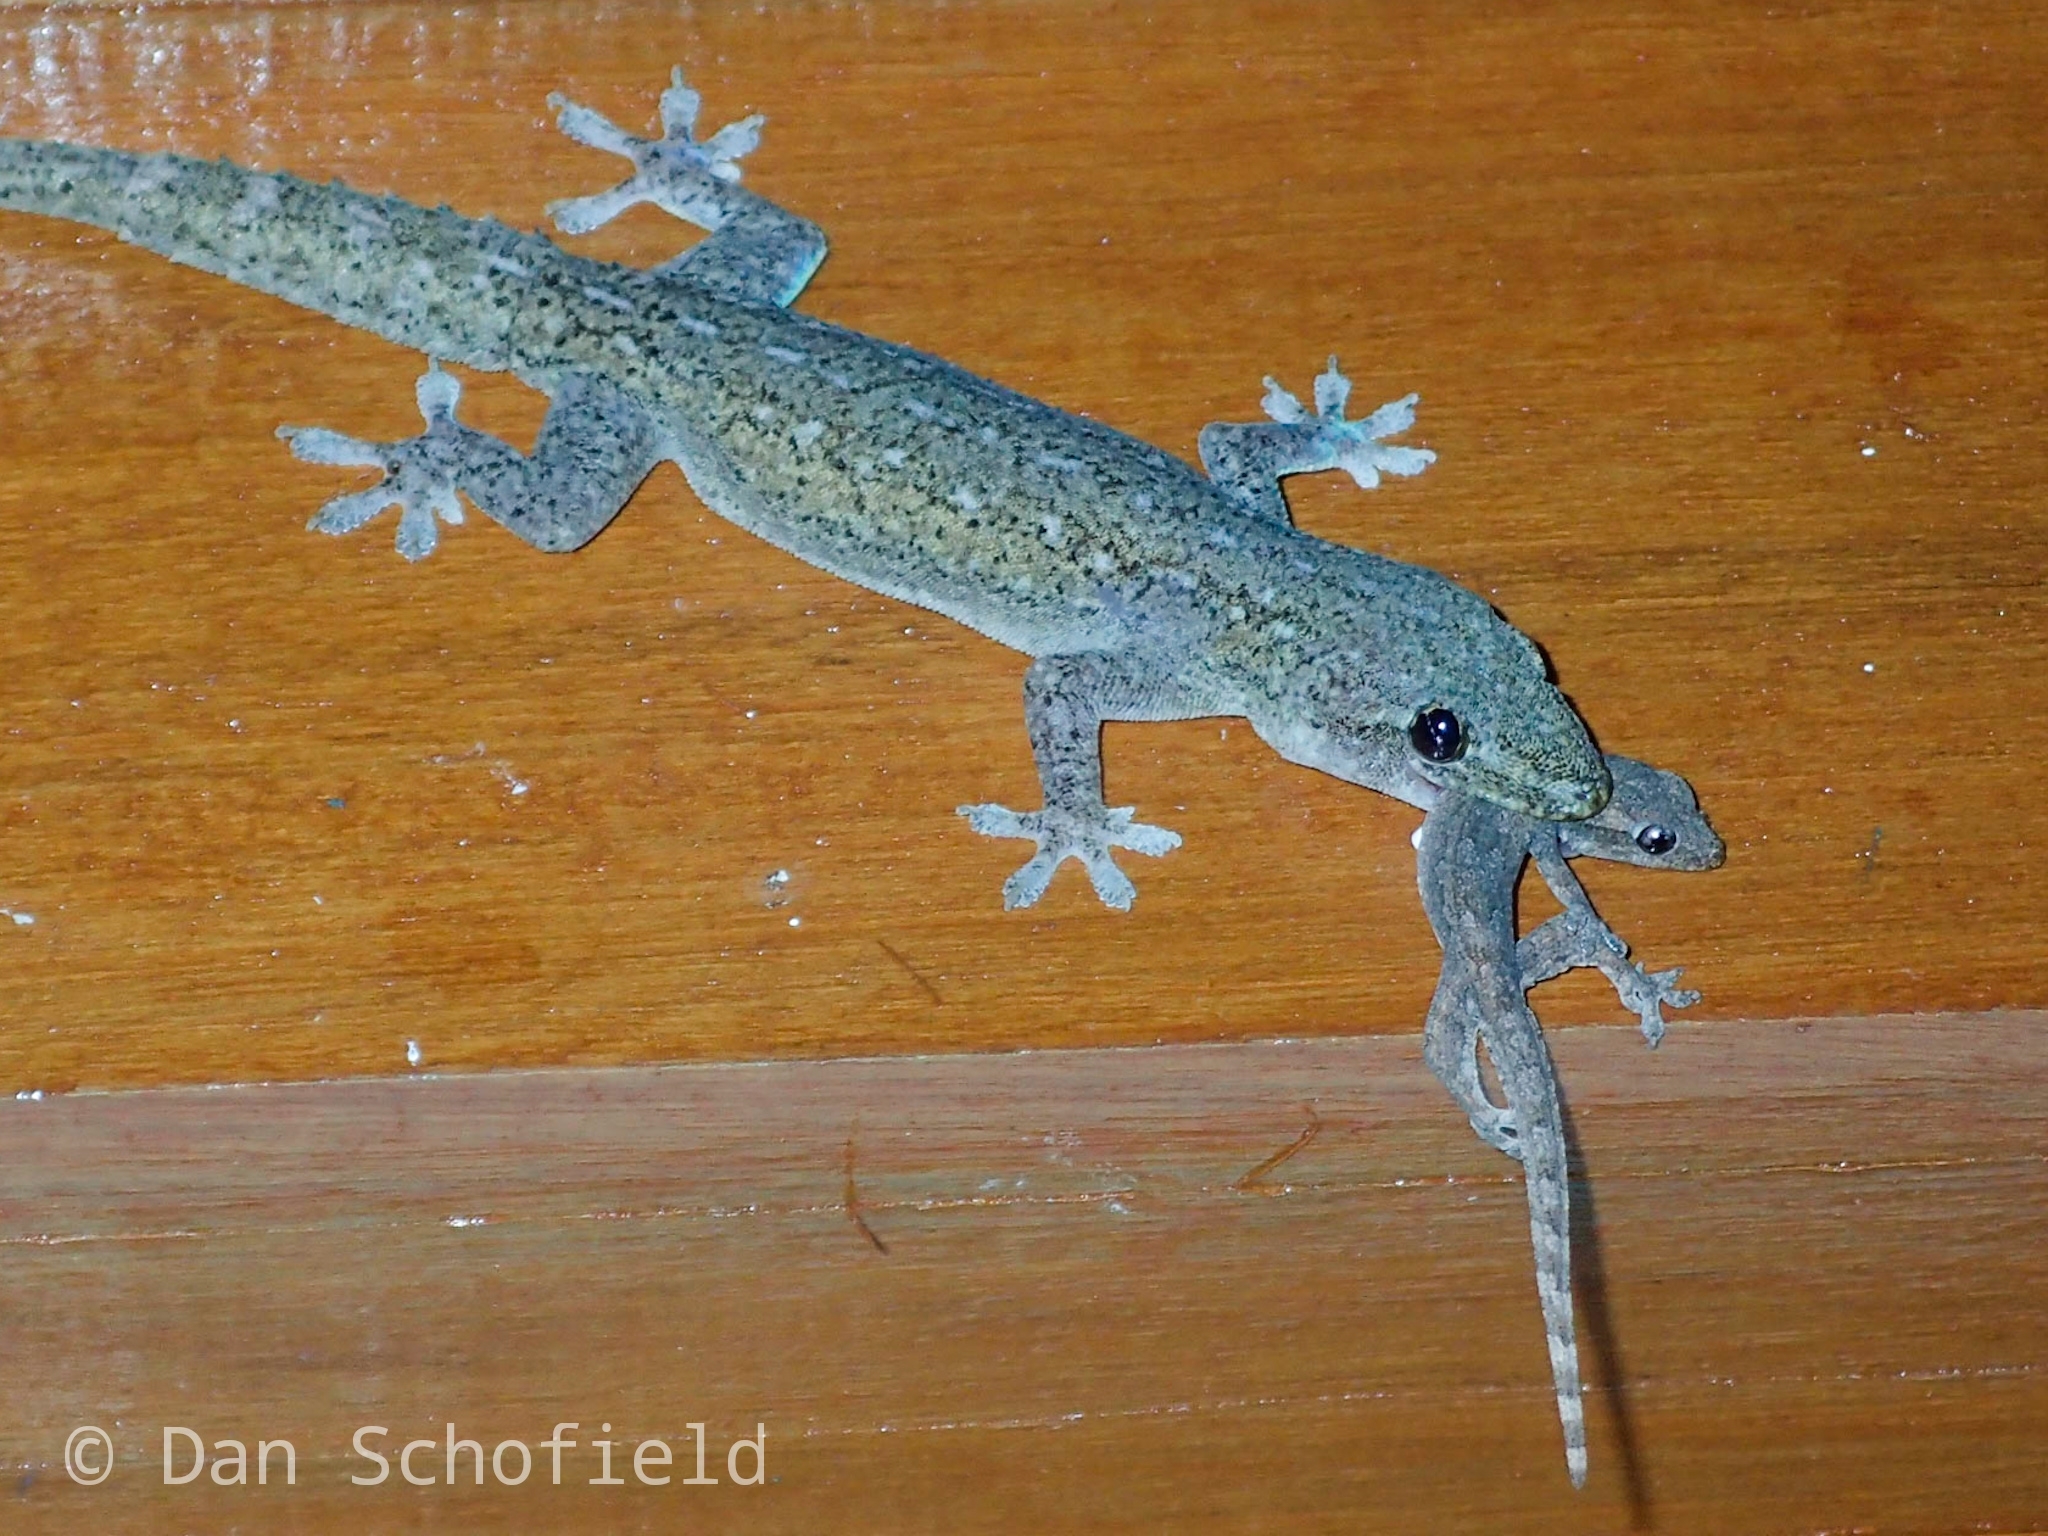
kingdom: Animalia
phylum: Chordata
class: Squamata
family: Gekkonidae
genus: Hemidactylus
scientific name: Hemidactylus frenatus
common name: Common house gecko
